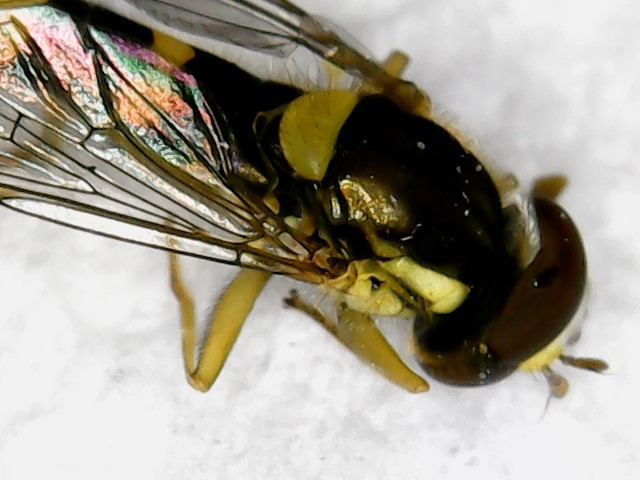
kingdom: Animalia
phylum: Arthropoda
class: Insecta
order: Diptera
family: Syrphidae
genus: Sphaerophoria
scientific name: Sphaerophoria scripta
